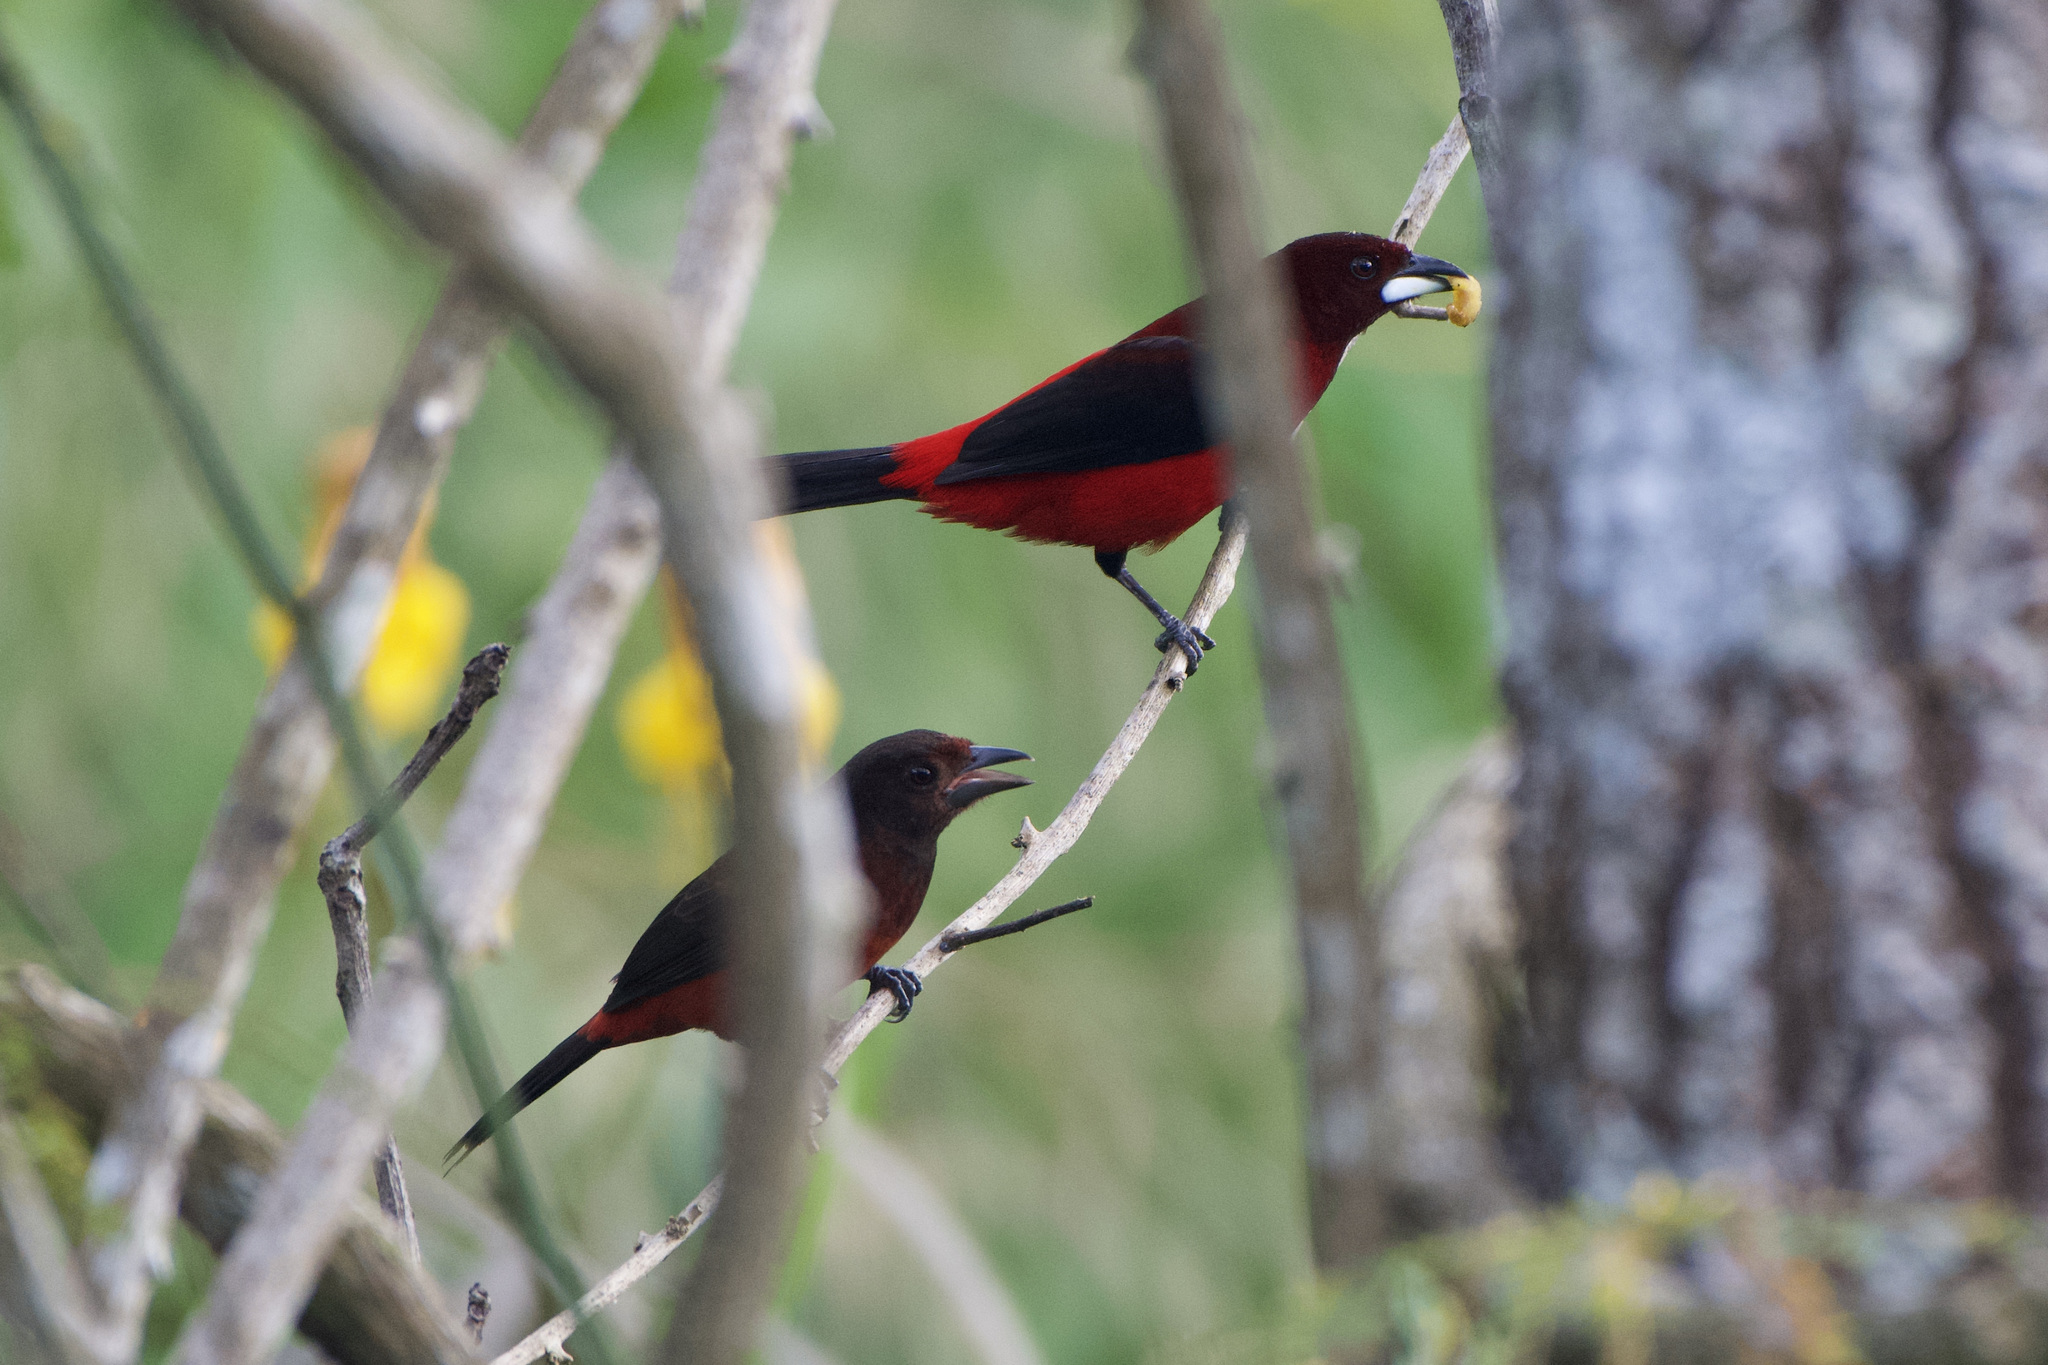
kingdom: Animalia
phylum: Chordata
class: Aves
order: Passeriformes
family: Thraupidae
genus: Ramphocelus
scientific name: Ramphocelus dimidiatus
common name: Crimson-backed tanager
